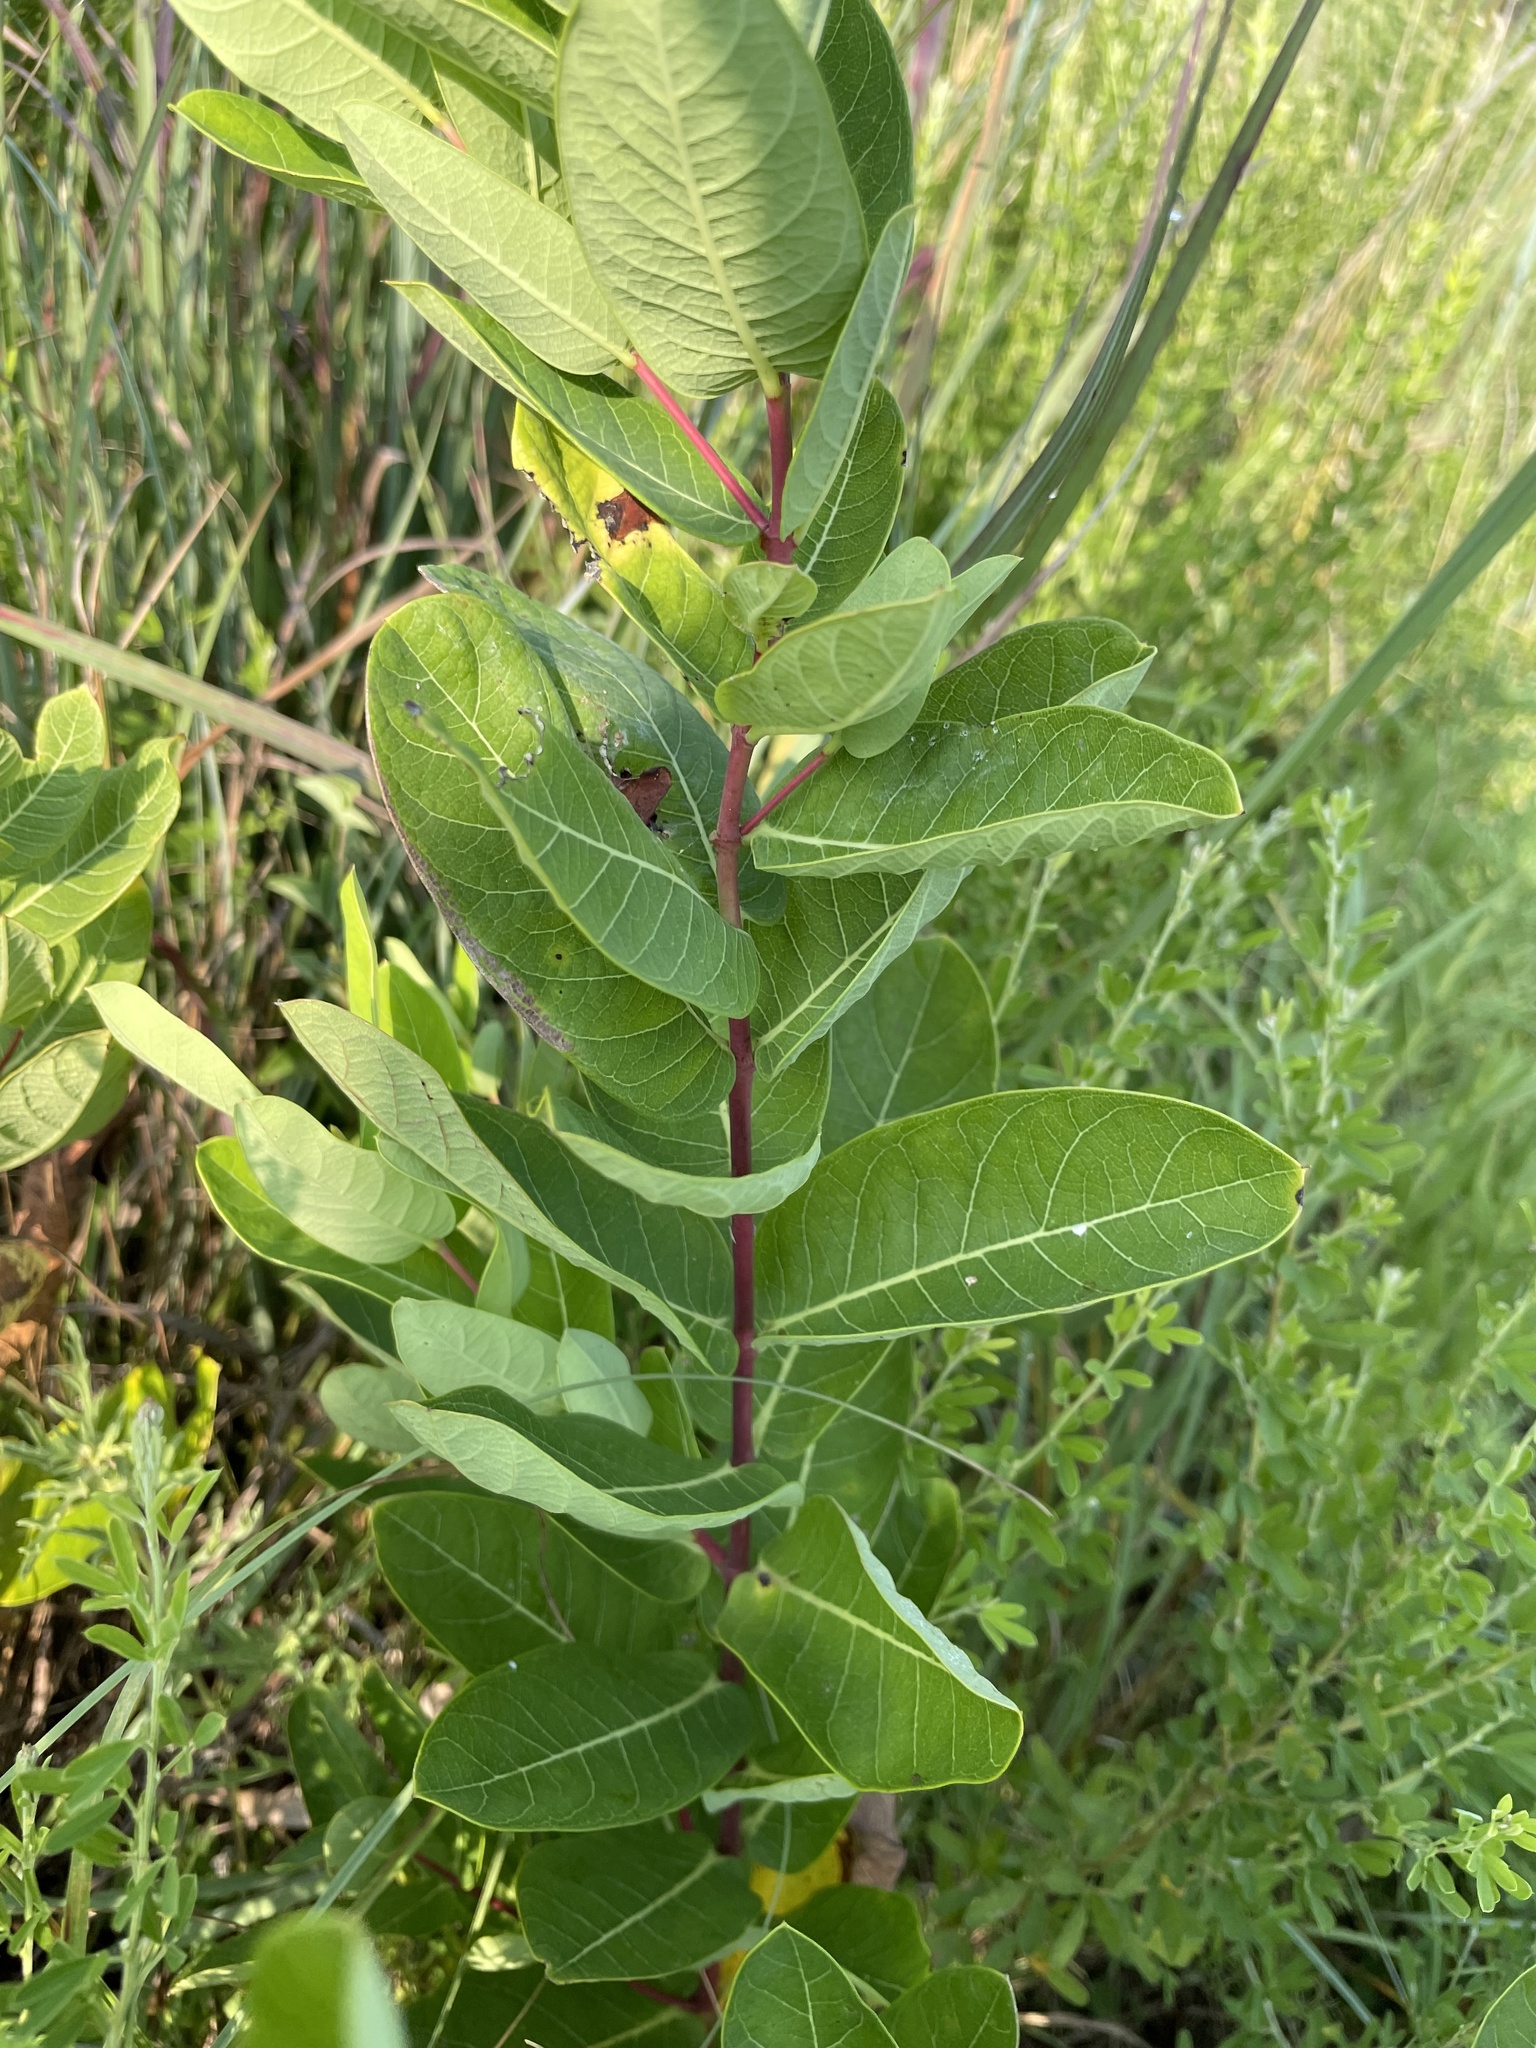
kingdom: Plantae
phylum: Tracheophyta
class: Magnoliopsida
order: Gentianales
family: Apocynaceae
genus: Apocynum
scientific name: Apocynum cannabinum
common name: Hemp dogbane
